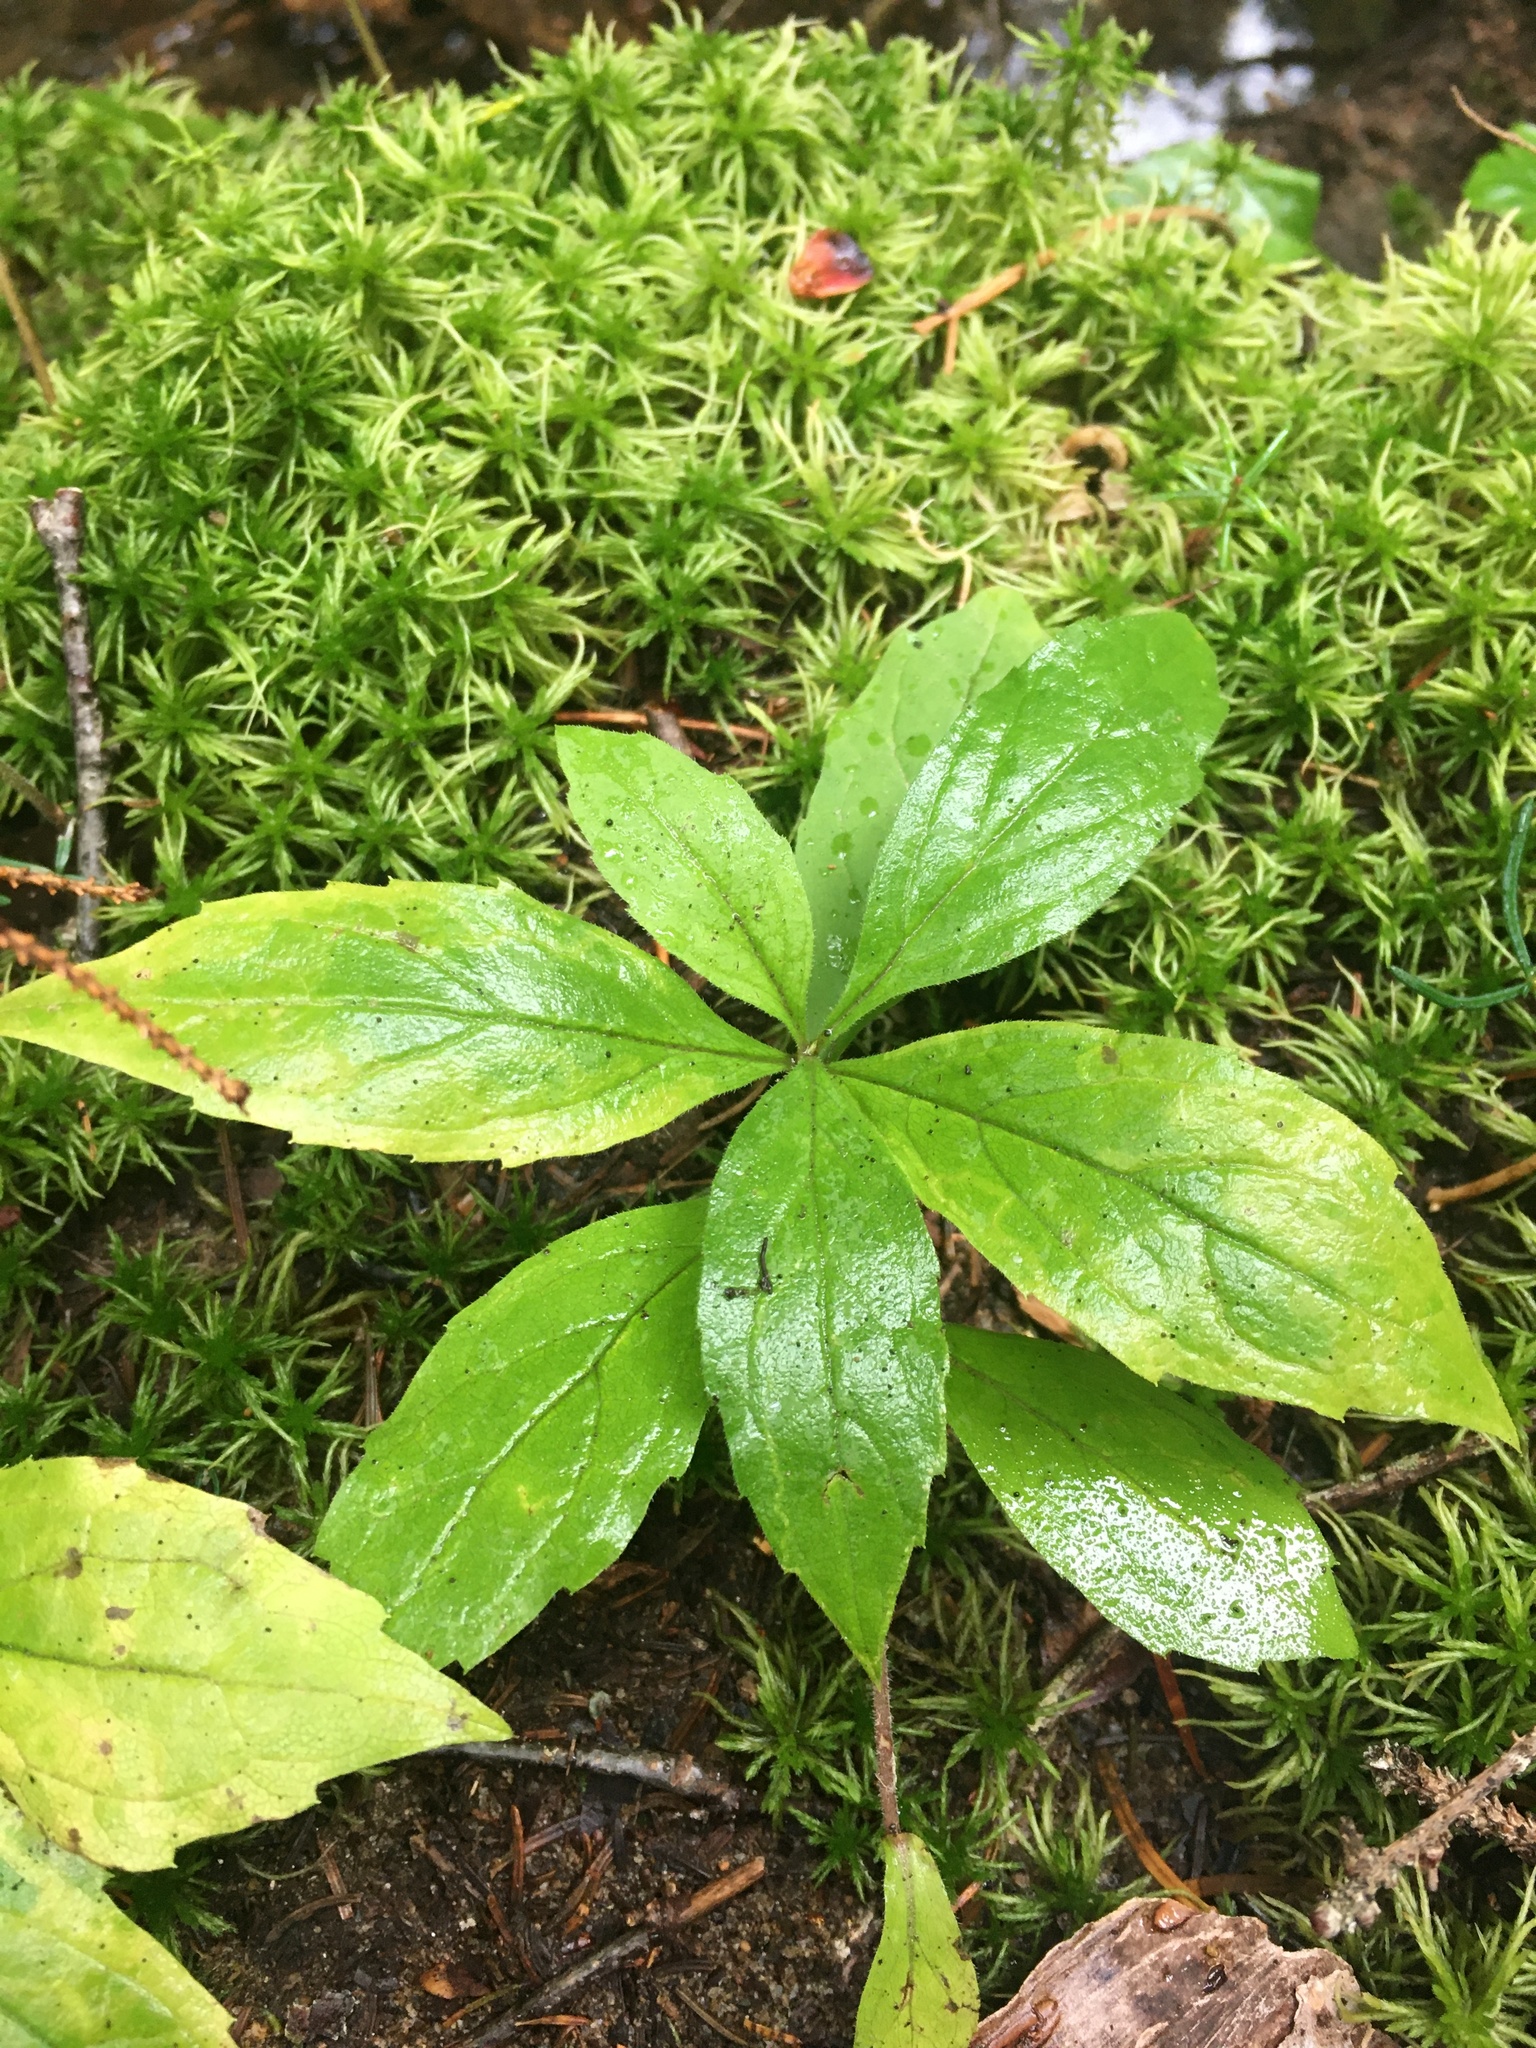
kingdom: Plantae
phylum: Tracheophyta
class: Magnoliopsida
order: Asterales
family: Asteraceae
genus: Oclemena
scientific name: Oclemena acuminata
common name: Mountain aster
